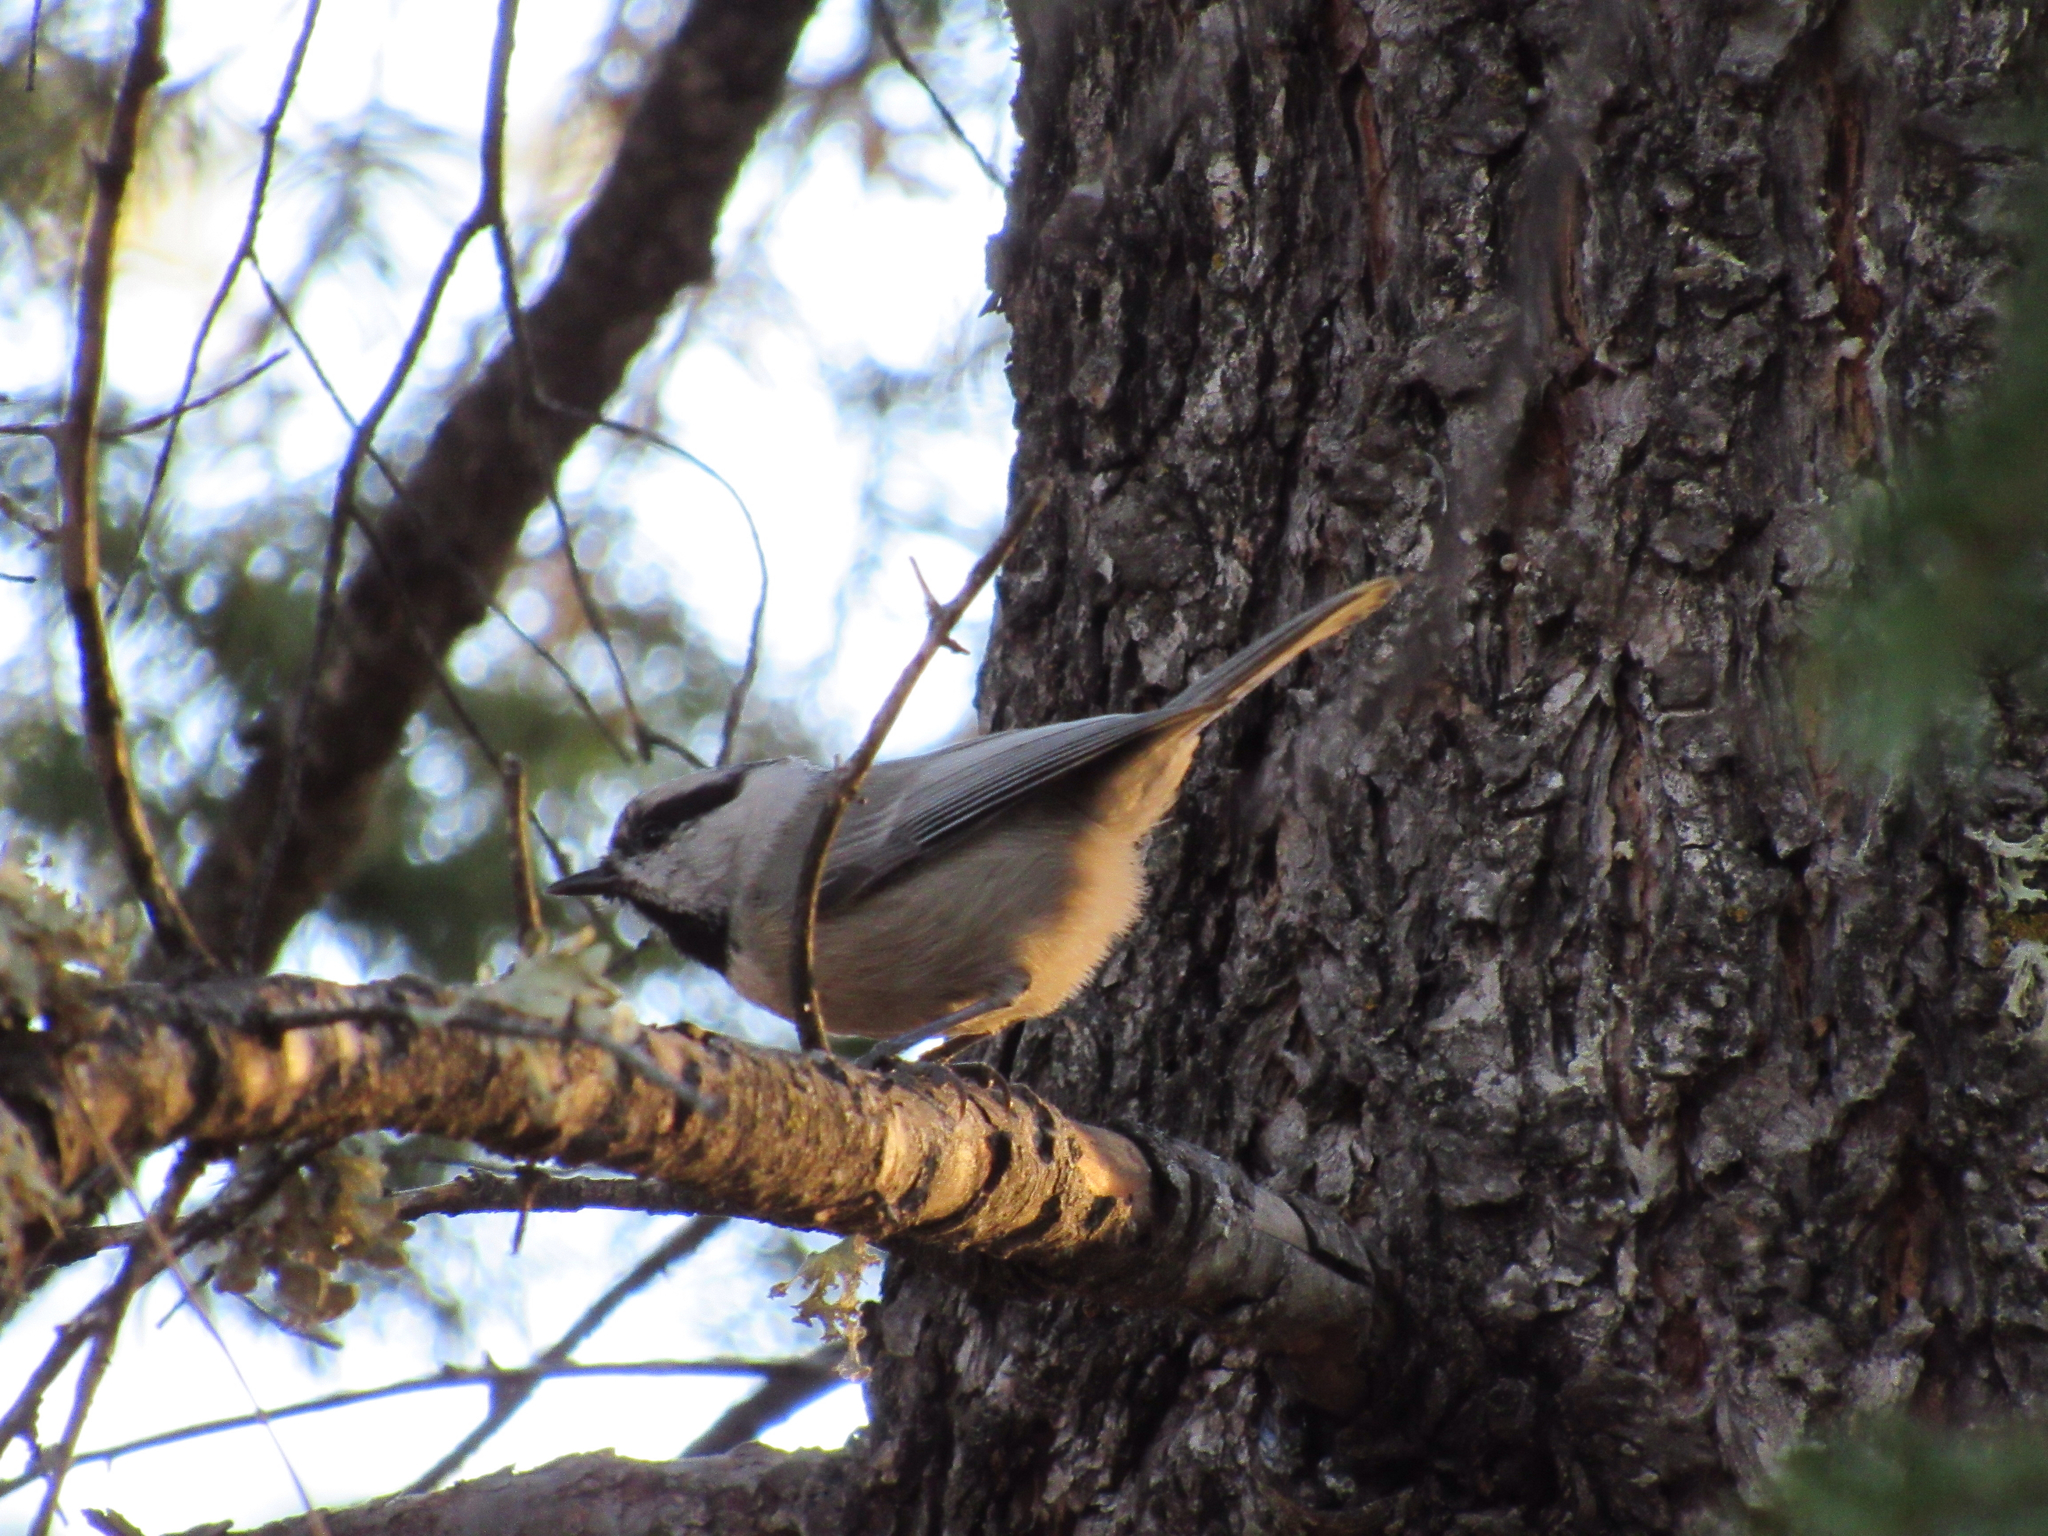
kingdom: Animalia
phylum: Chordata
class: Aves
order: Passeriformes
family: Paridae
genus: Poecile
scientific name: Poecile gambeli
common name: Mountain chickadee
